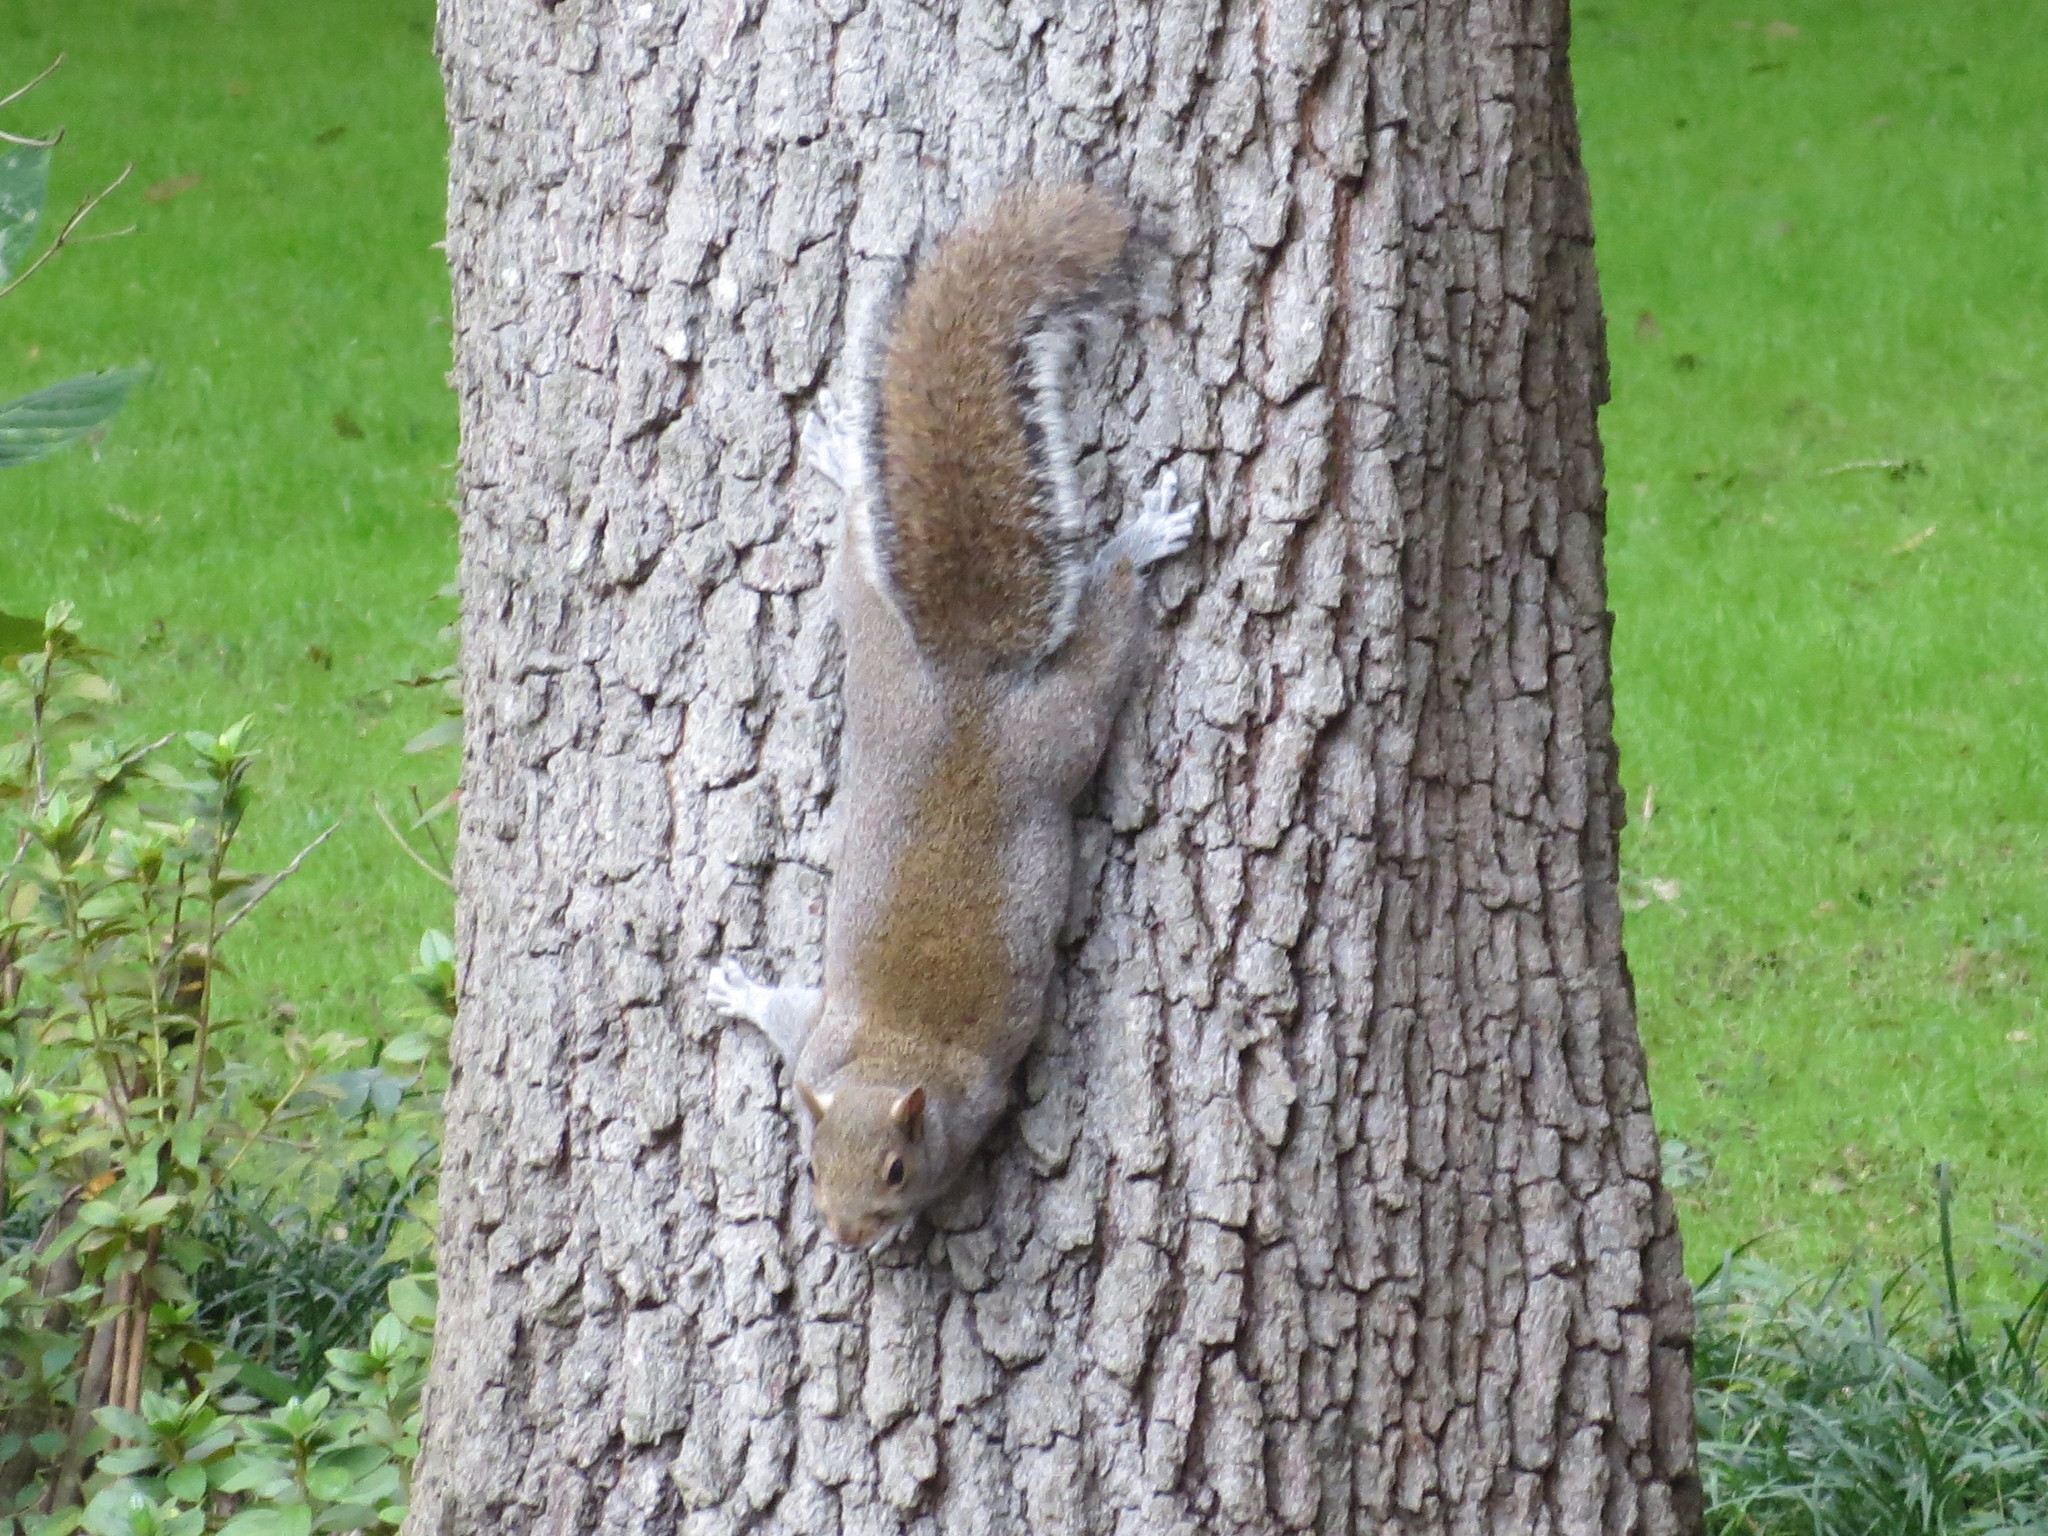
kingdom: Animalia
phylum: Chordata
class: Mammalia
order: Rodentia
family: Sciuridae
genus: Sciurus
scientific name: Sciurus carolinensis
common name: Eastern gray squirrel
